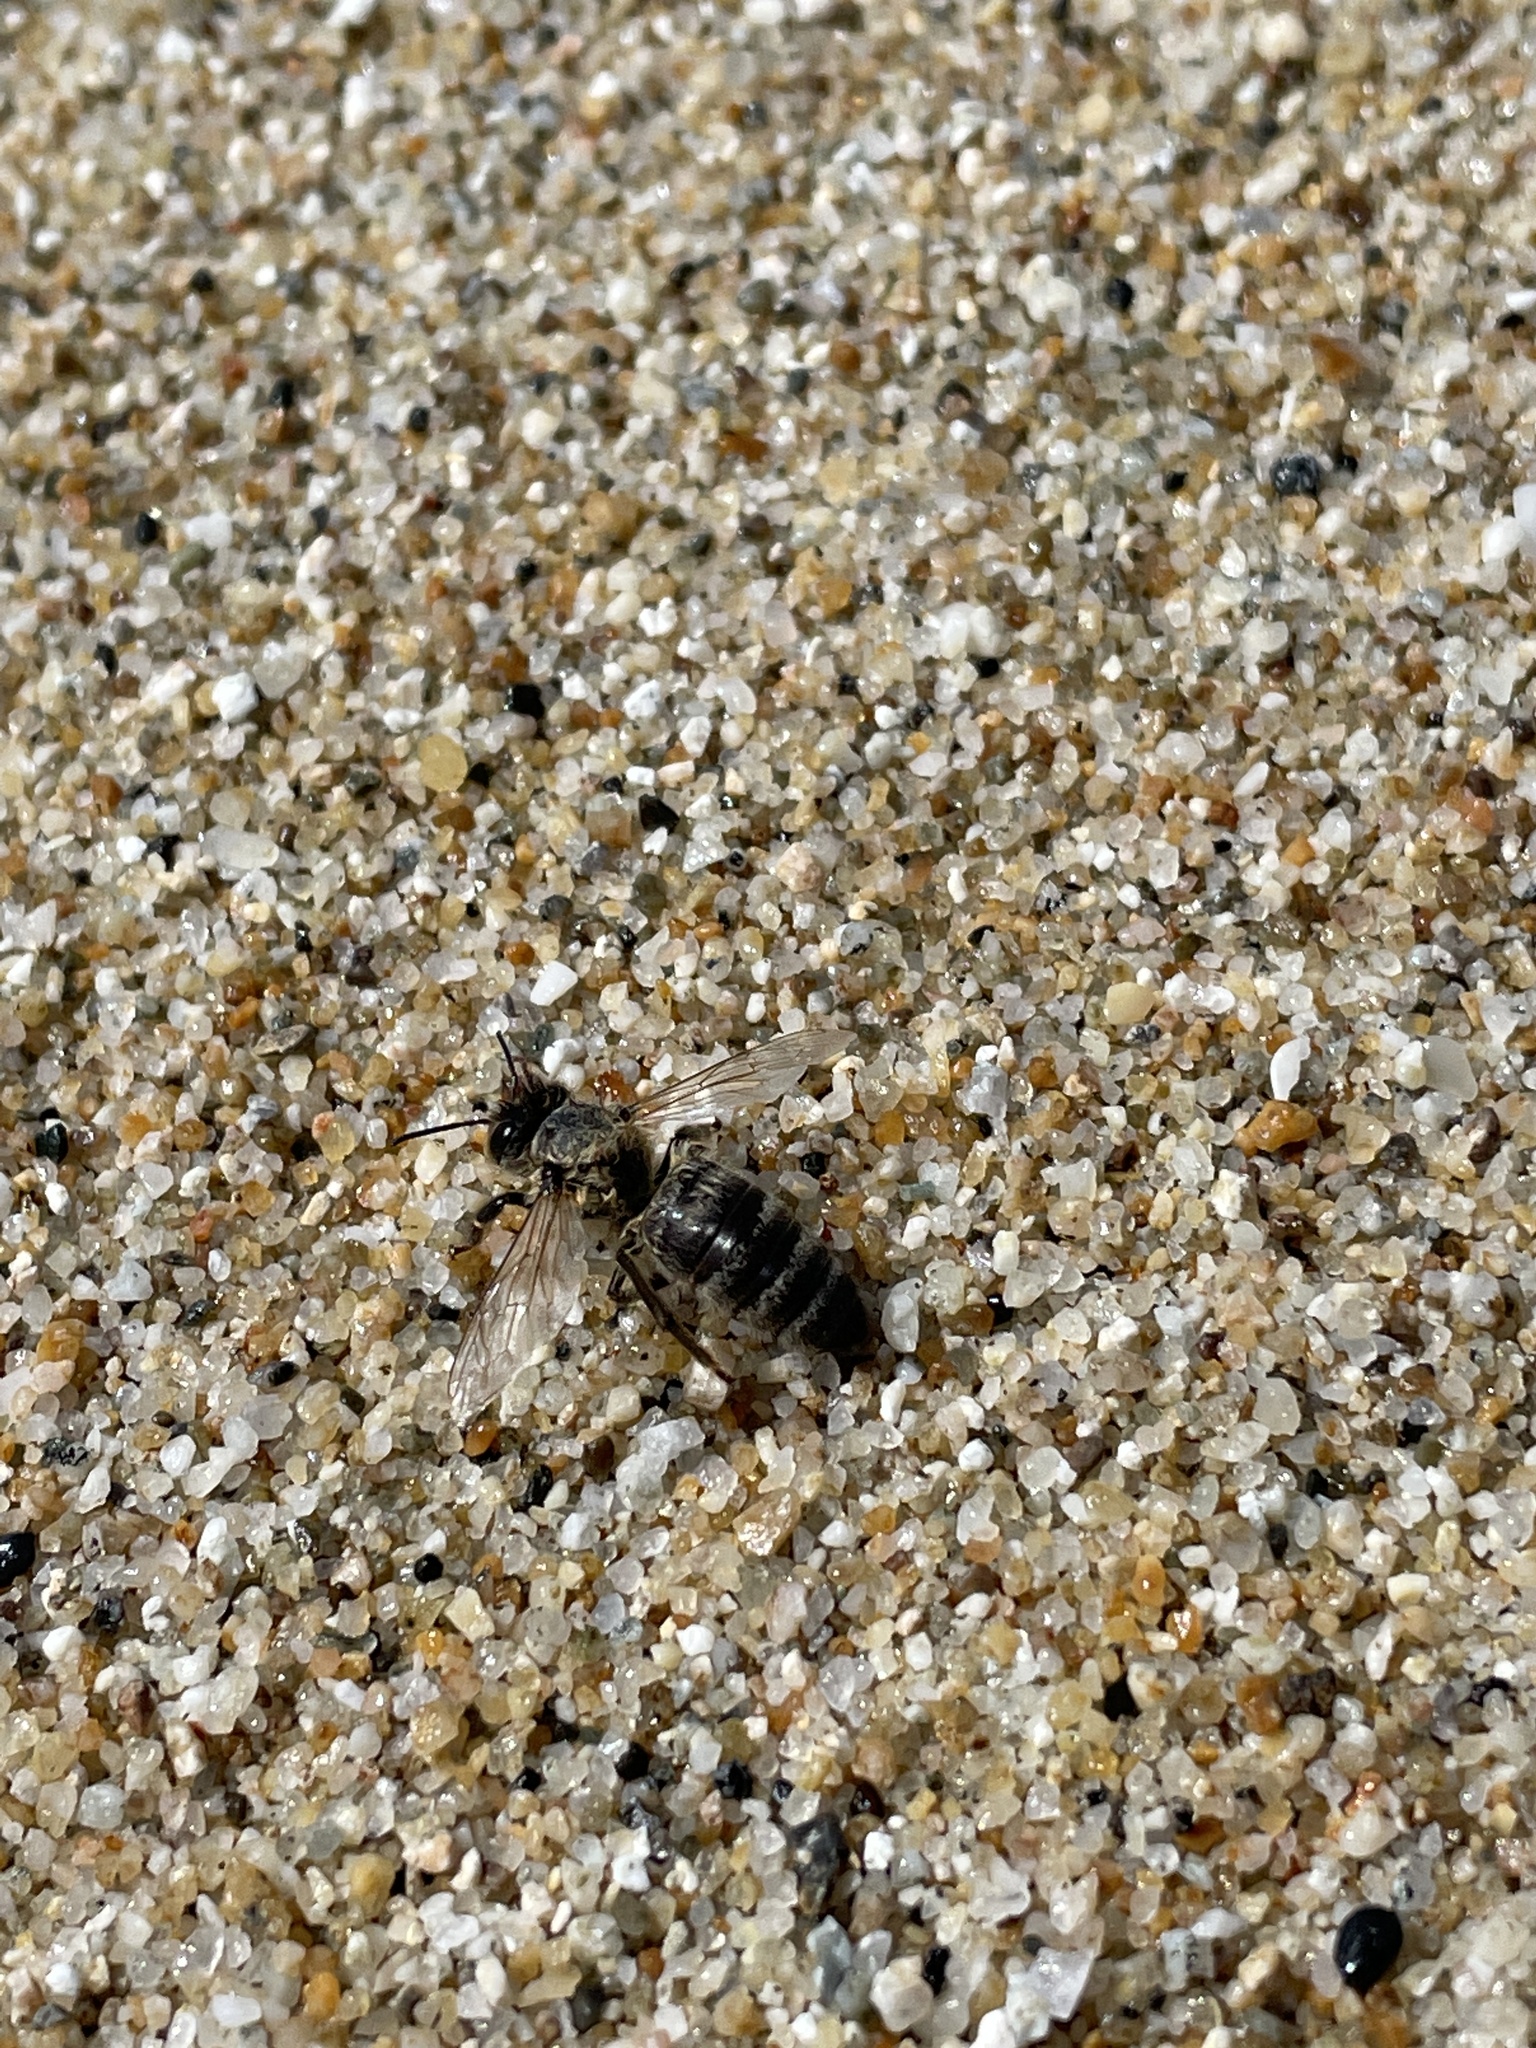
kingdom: Animalia
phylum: Arthropoda
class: Insecta
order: Hymenoptera
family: Apidae
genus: Apis
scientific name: Apis mellifera
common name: Honey bee
